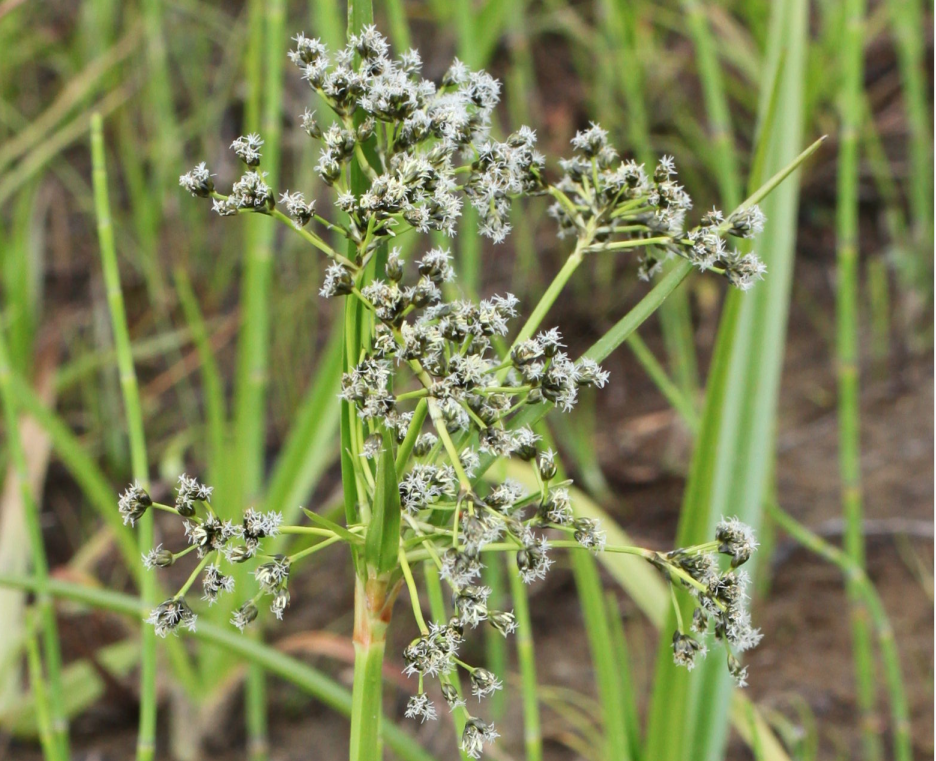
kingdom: Plantae
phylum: Tracheophyta
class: Liliopsida
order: Poales
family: Cyperaceae
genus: Scirpus
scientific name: Scirpus sylvaticus
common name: Wood club-rush
